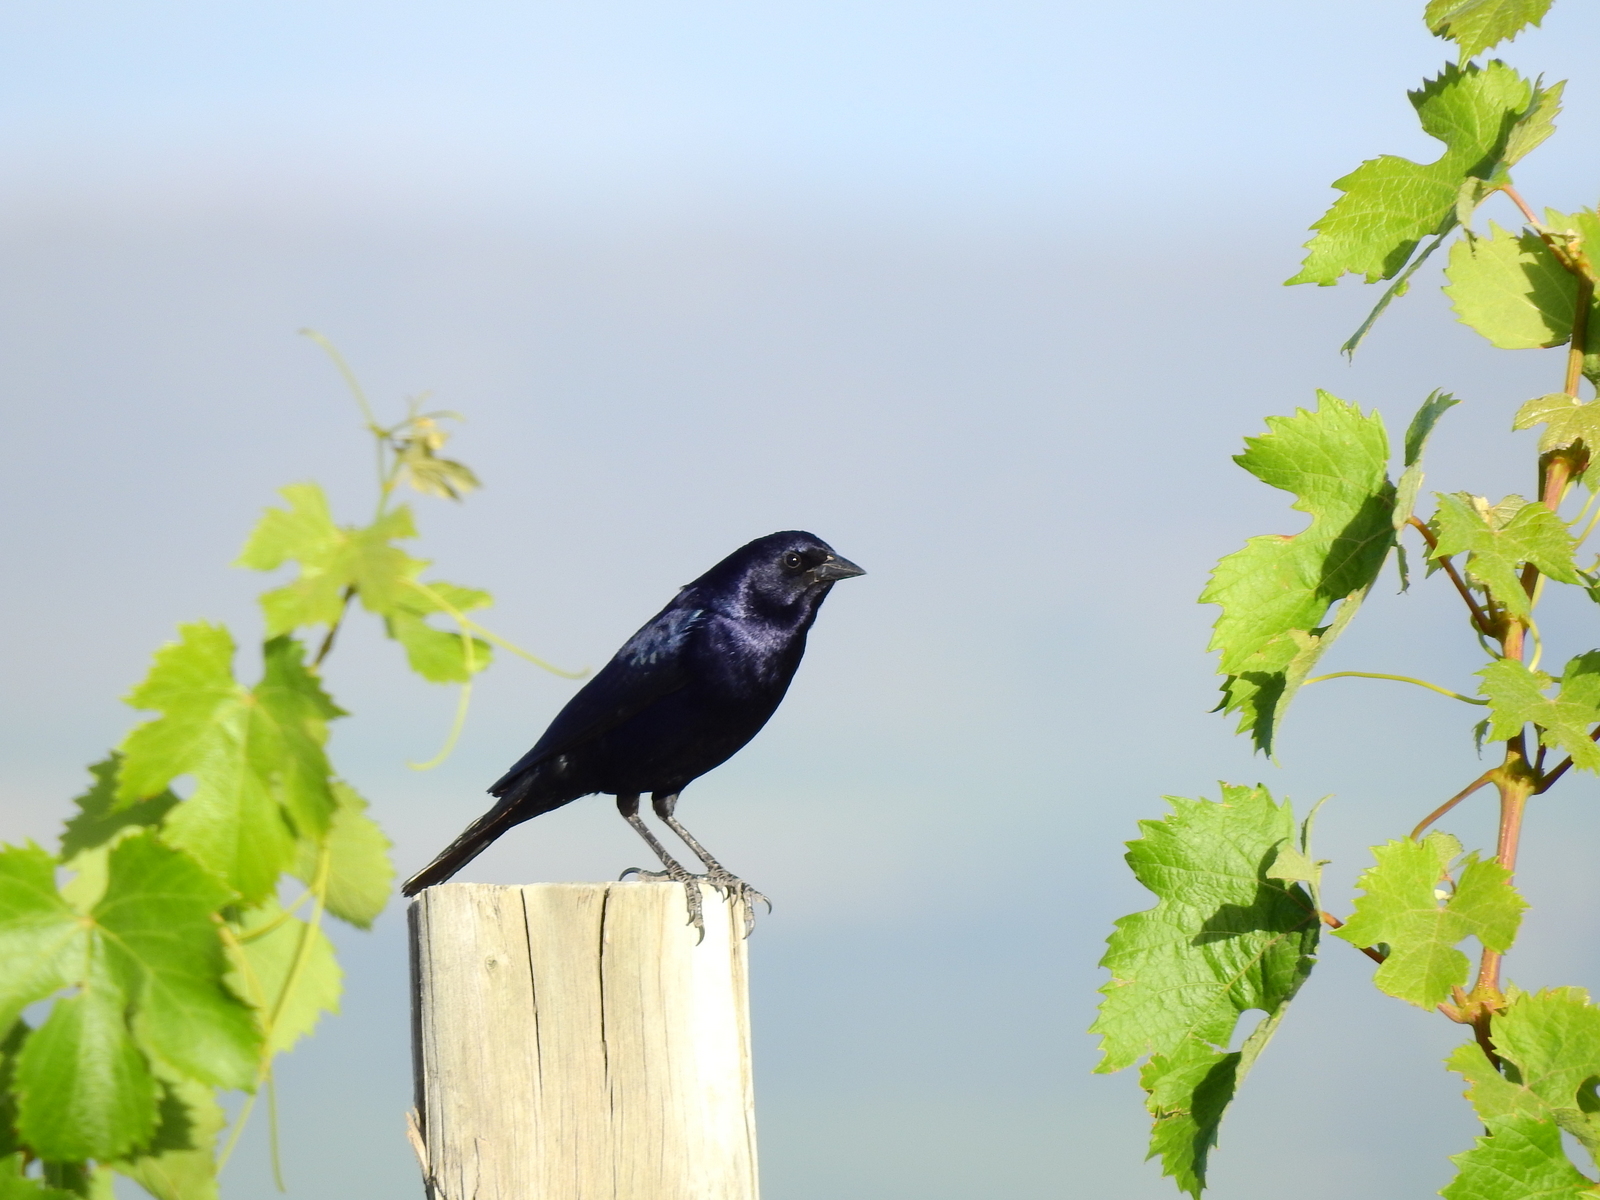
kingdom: Animalia
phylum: Chordata
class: Aves
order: Passeriformes
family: Icteridae
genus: Molothrus
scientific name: Molothrus bonariensis
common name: Shiny cowbird
